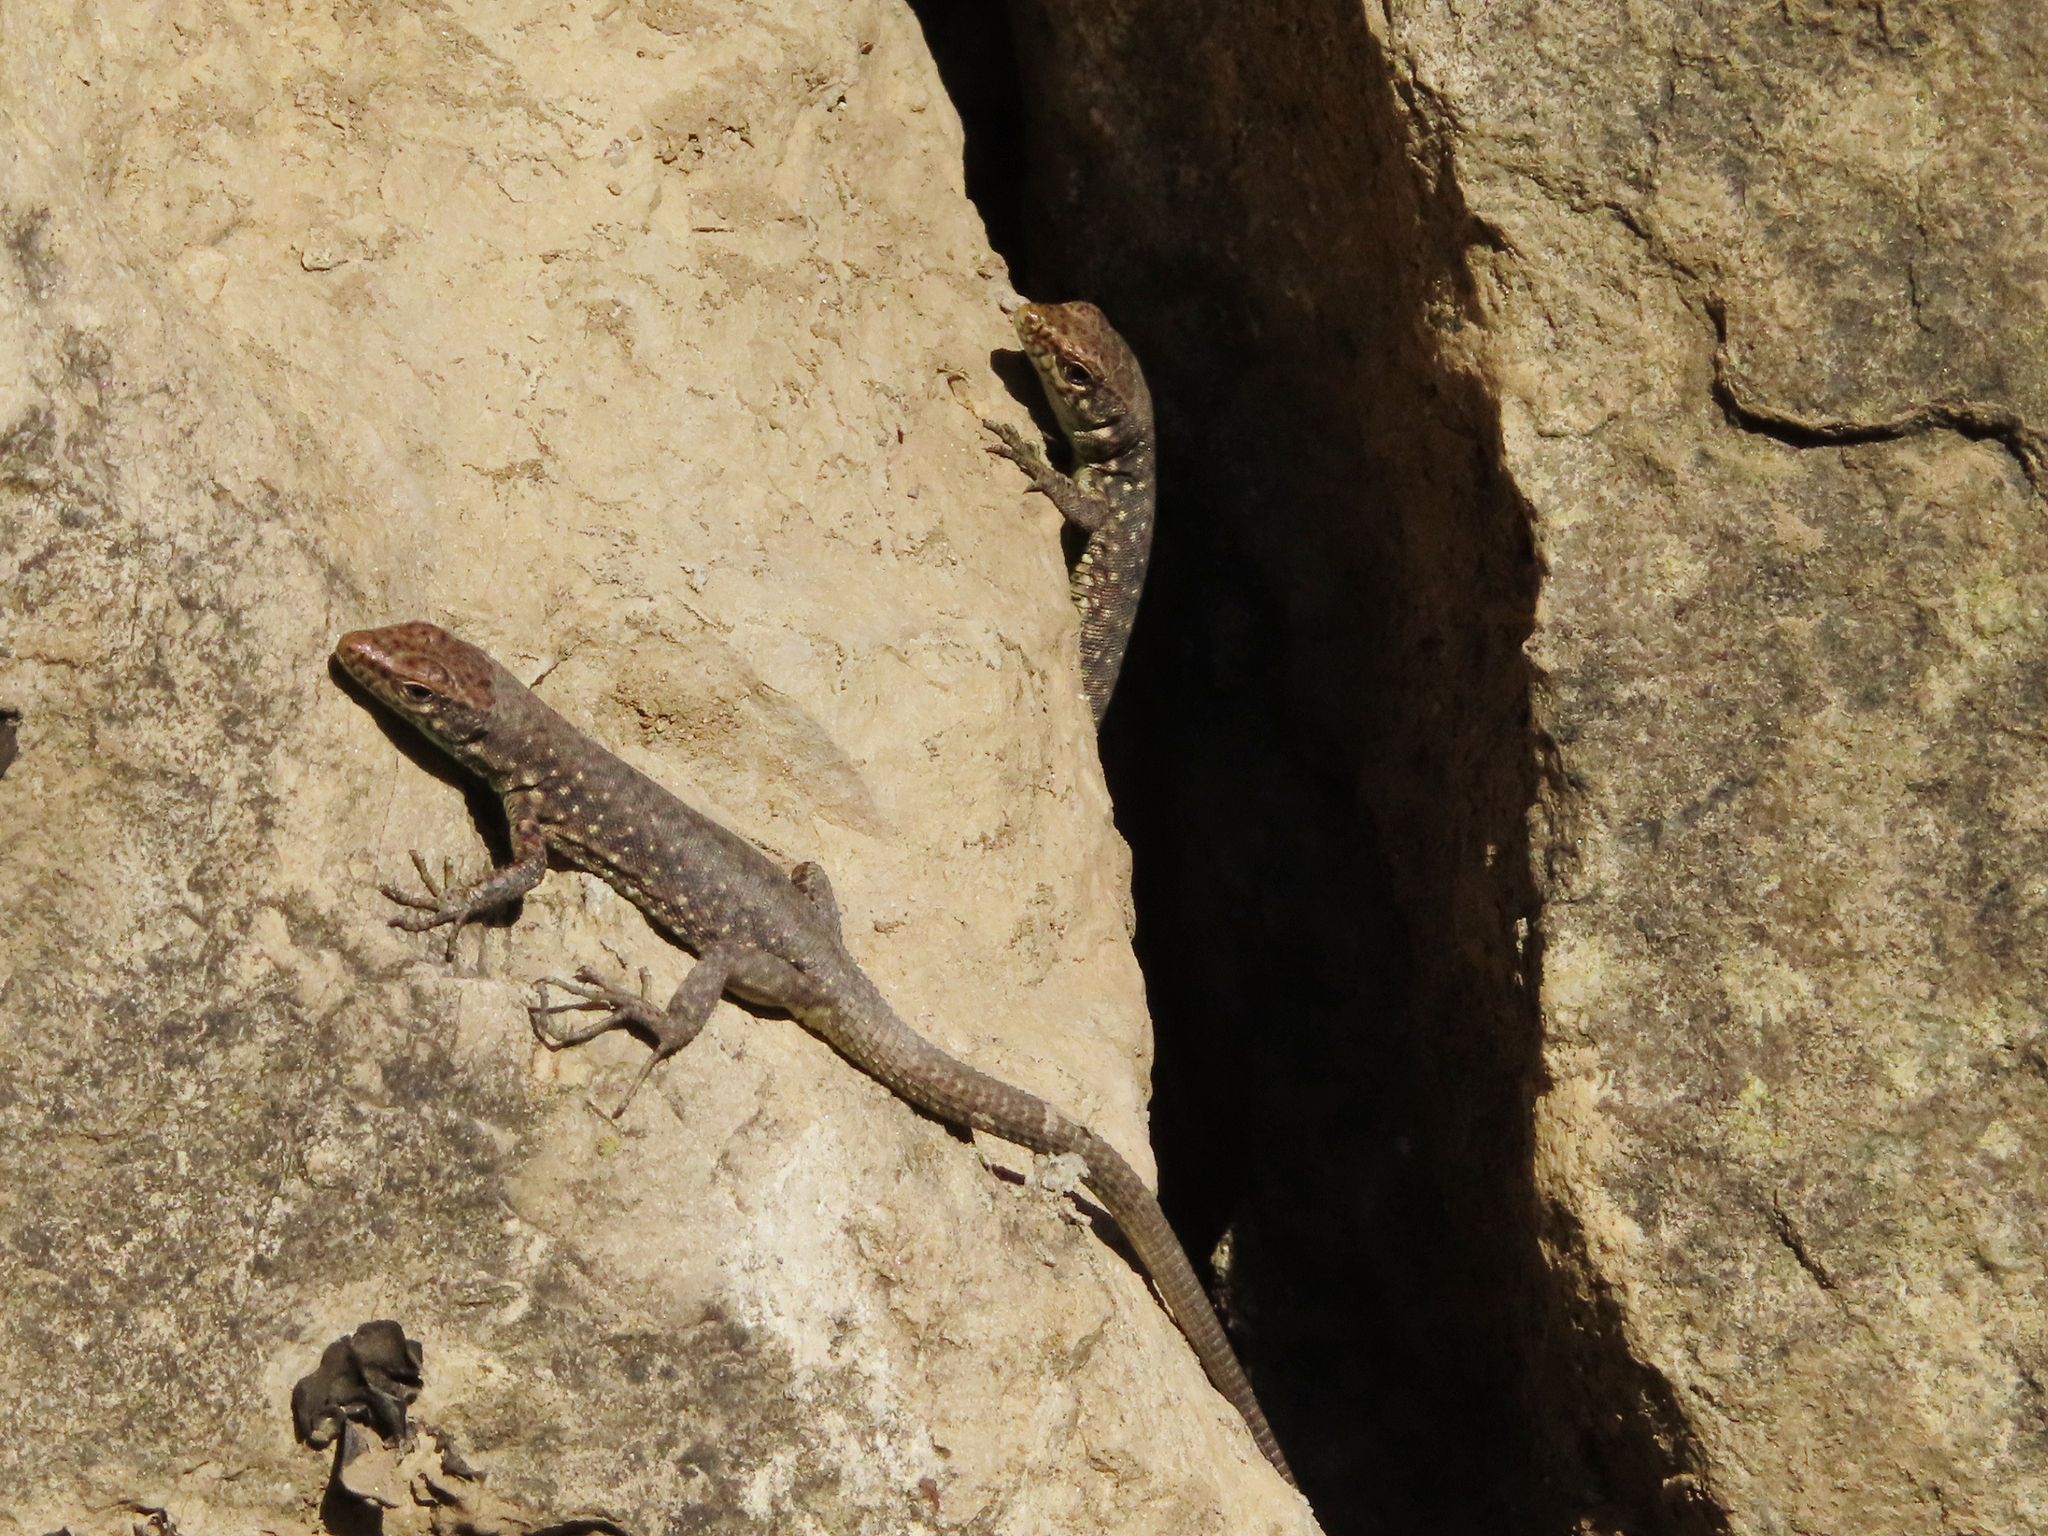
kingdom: Animalia
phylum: Chordata
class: Squamata
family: Lacertidae
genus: Darevskia
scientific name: Darevskia rudis
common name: Spiny-tailed lizard
